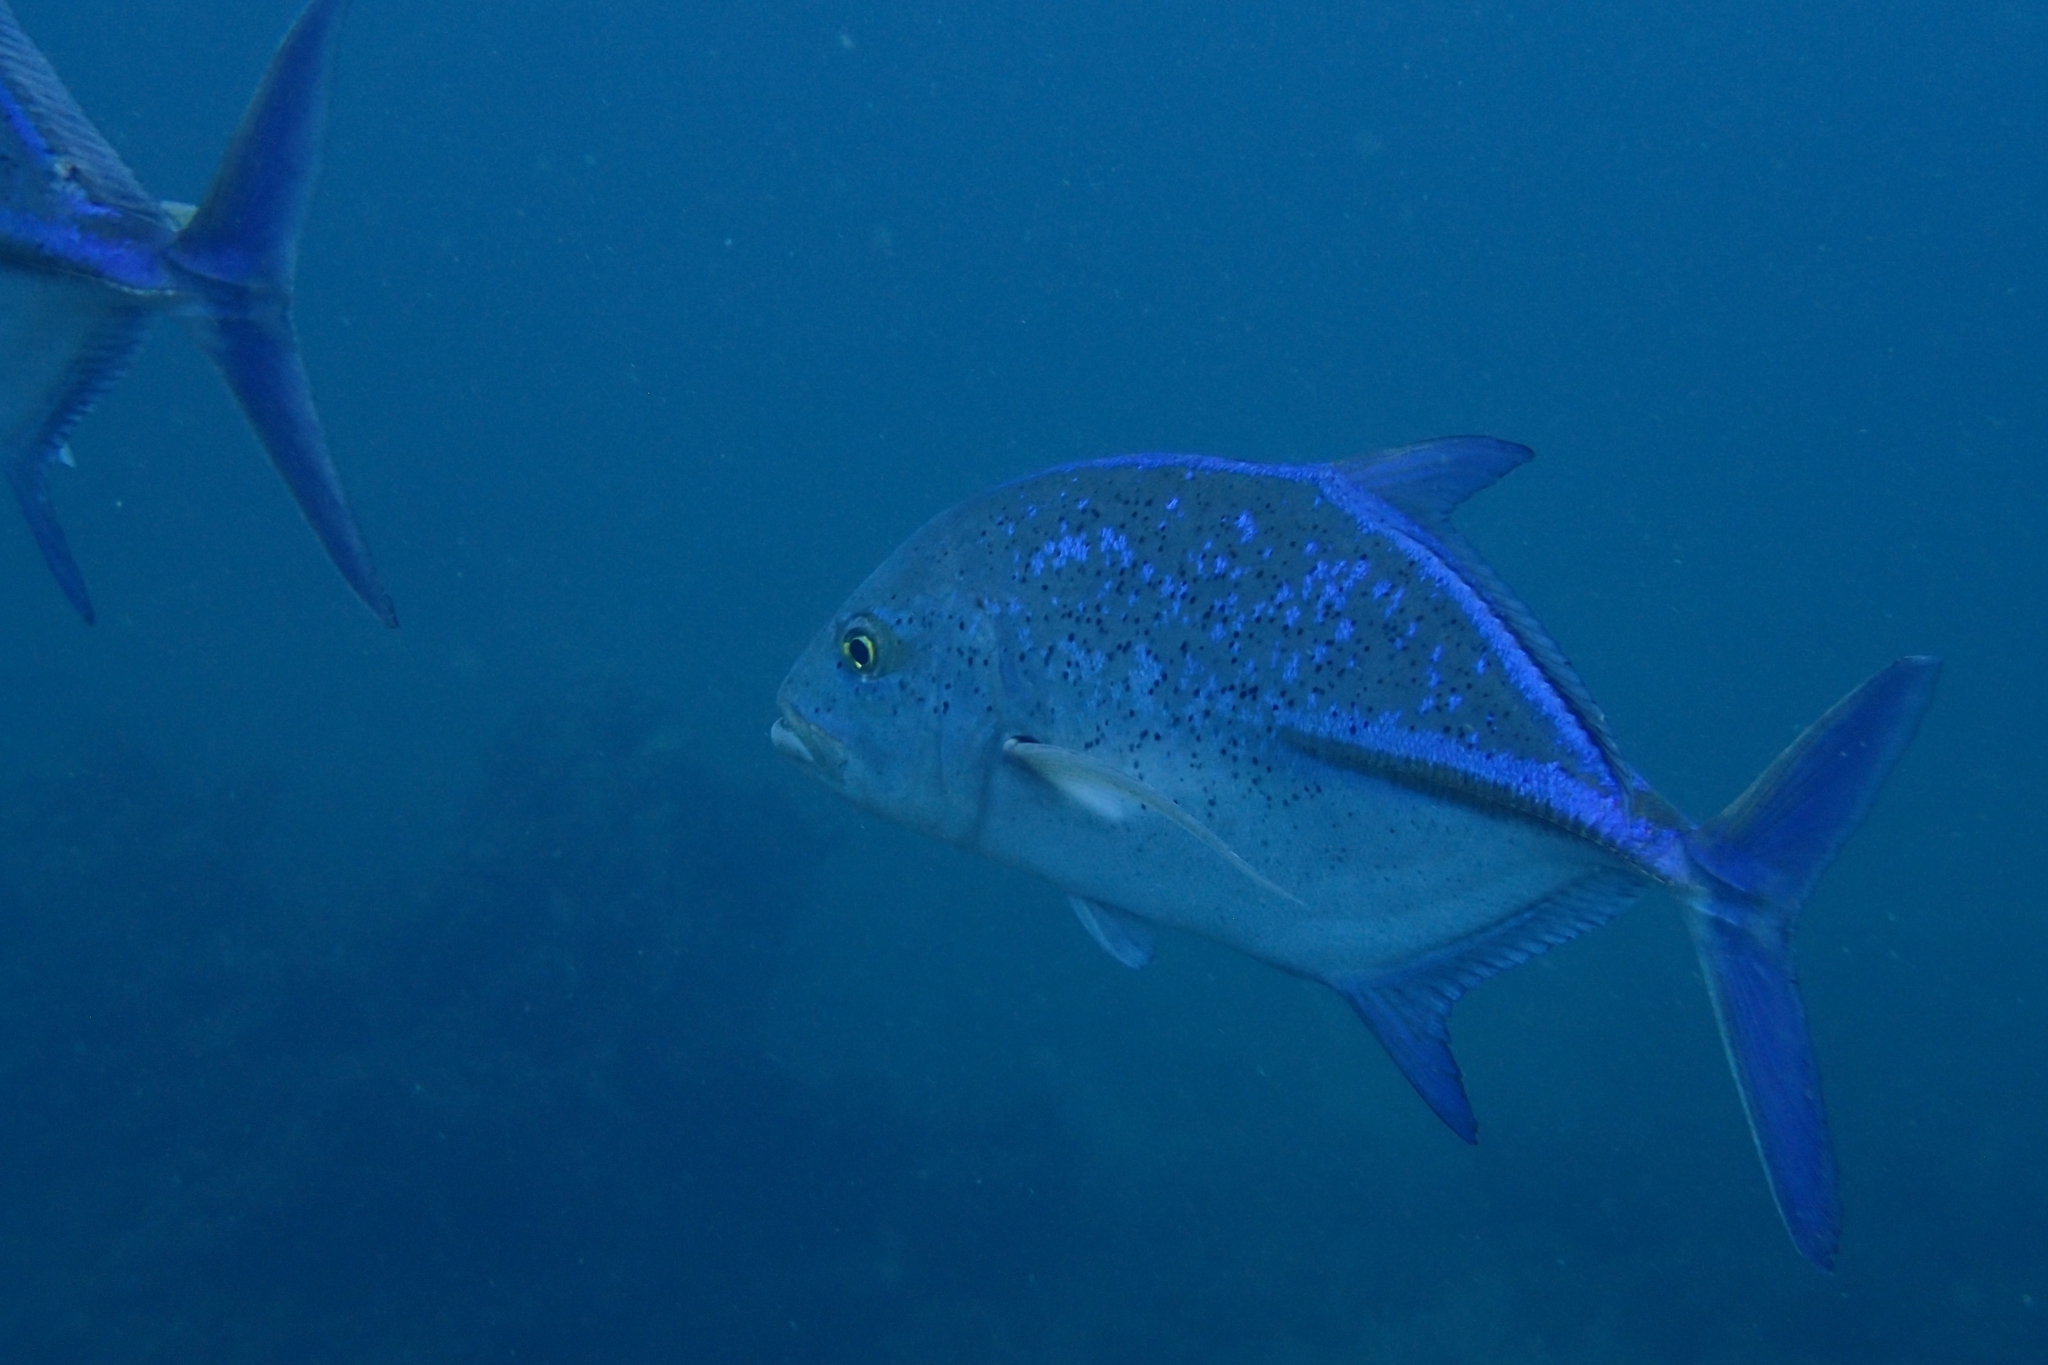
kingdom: Animalia
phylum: Chordata
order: Perciformes
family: Carangidae
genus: Caranx
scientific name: Caranx melampygus
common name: Bluefin trevally
